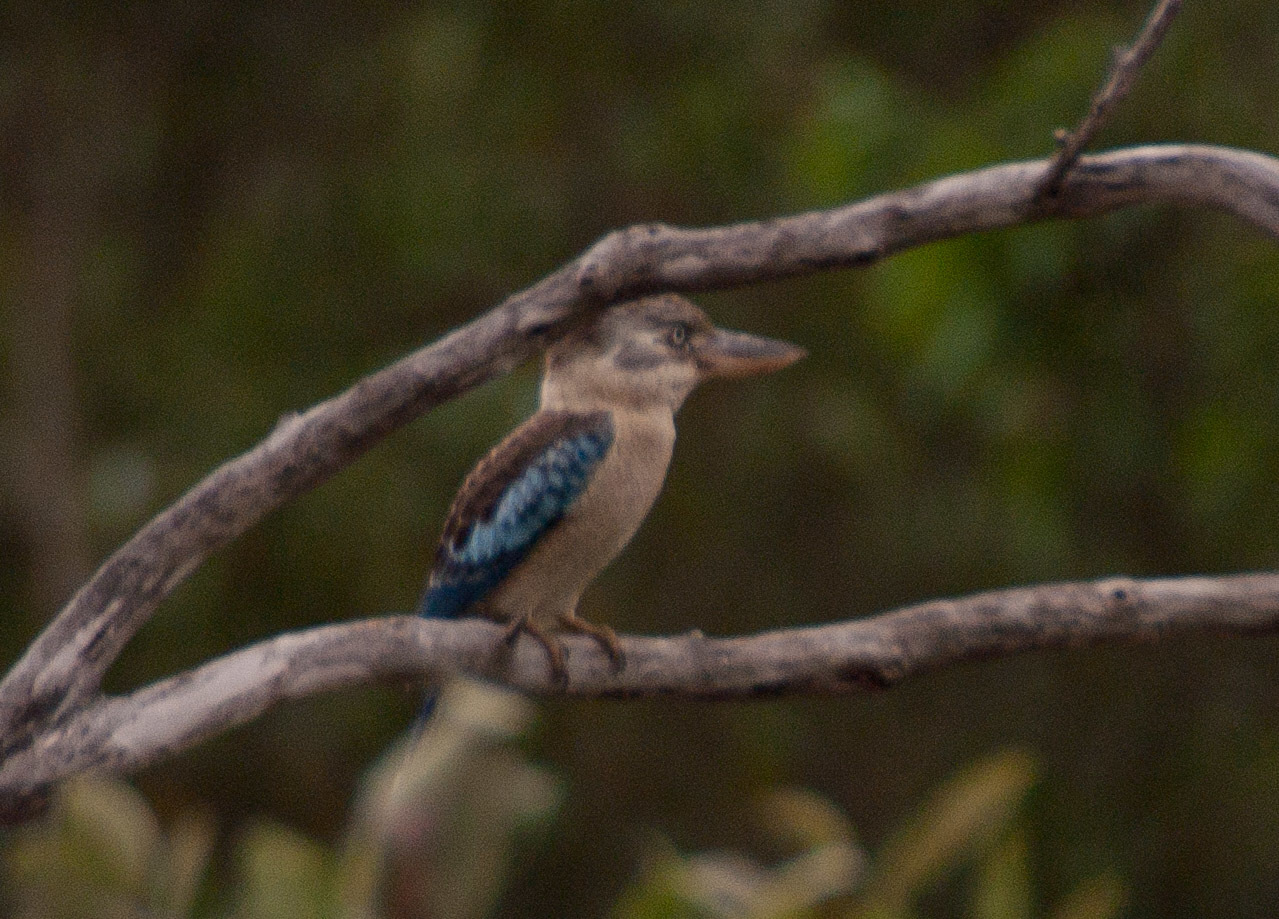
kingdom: Animalia
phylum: Chordata
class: Aves
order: Coraciiformes
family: Alcedinidae
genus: Dacelo
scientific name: Dacelo leachii
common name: Blue-winged kookaburra
